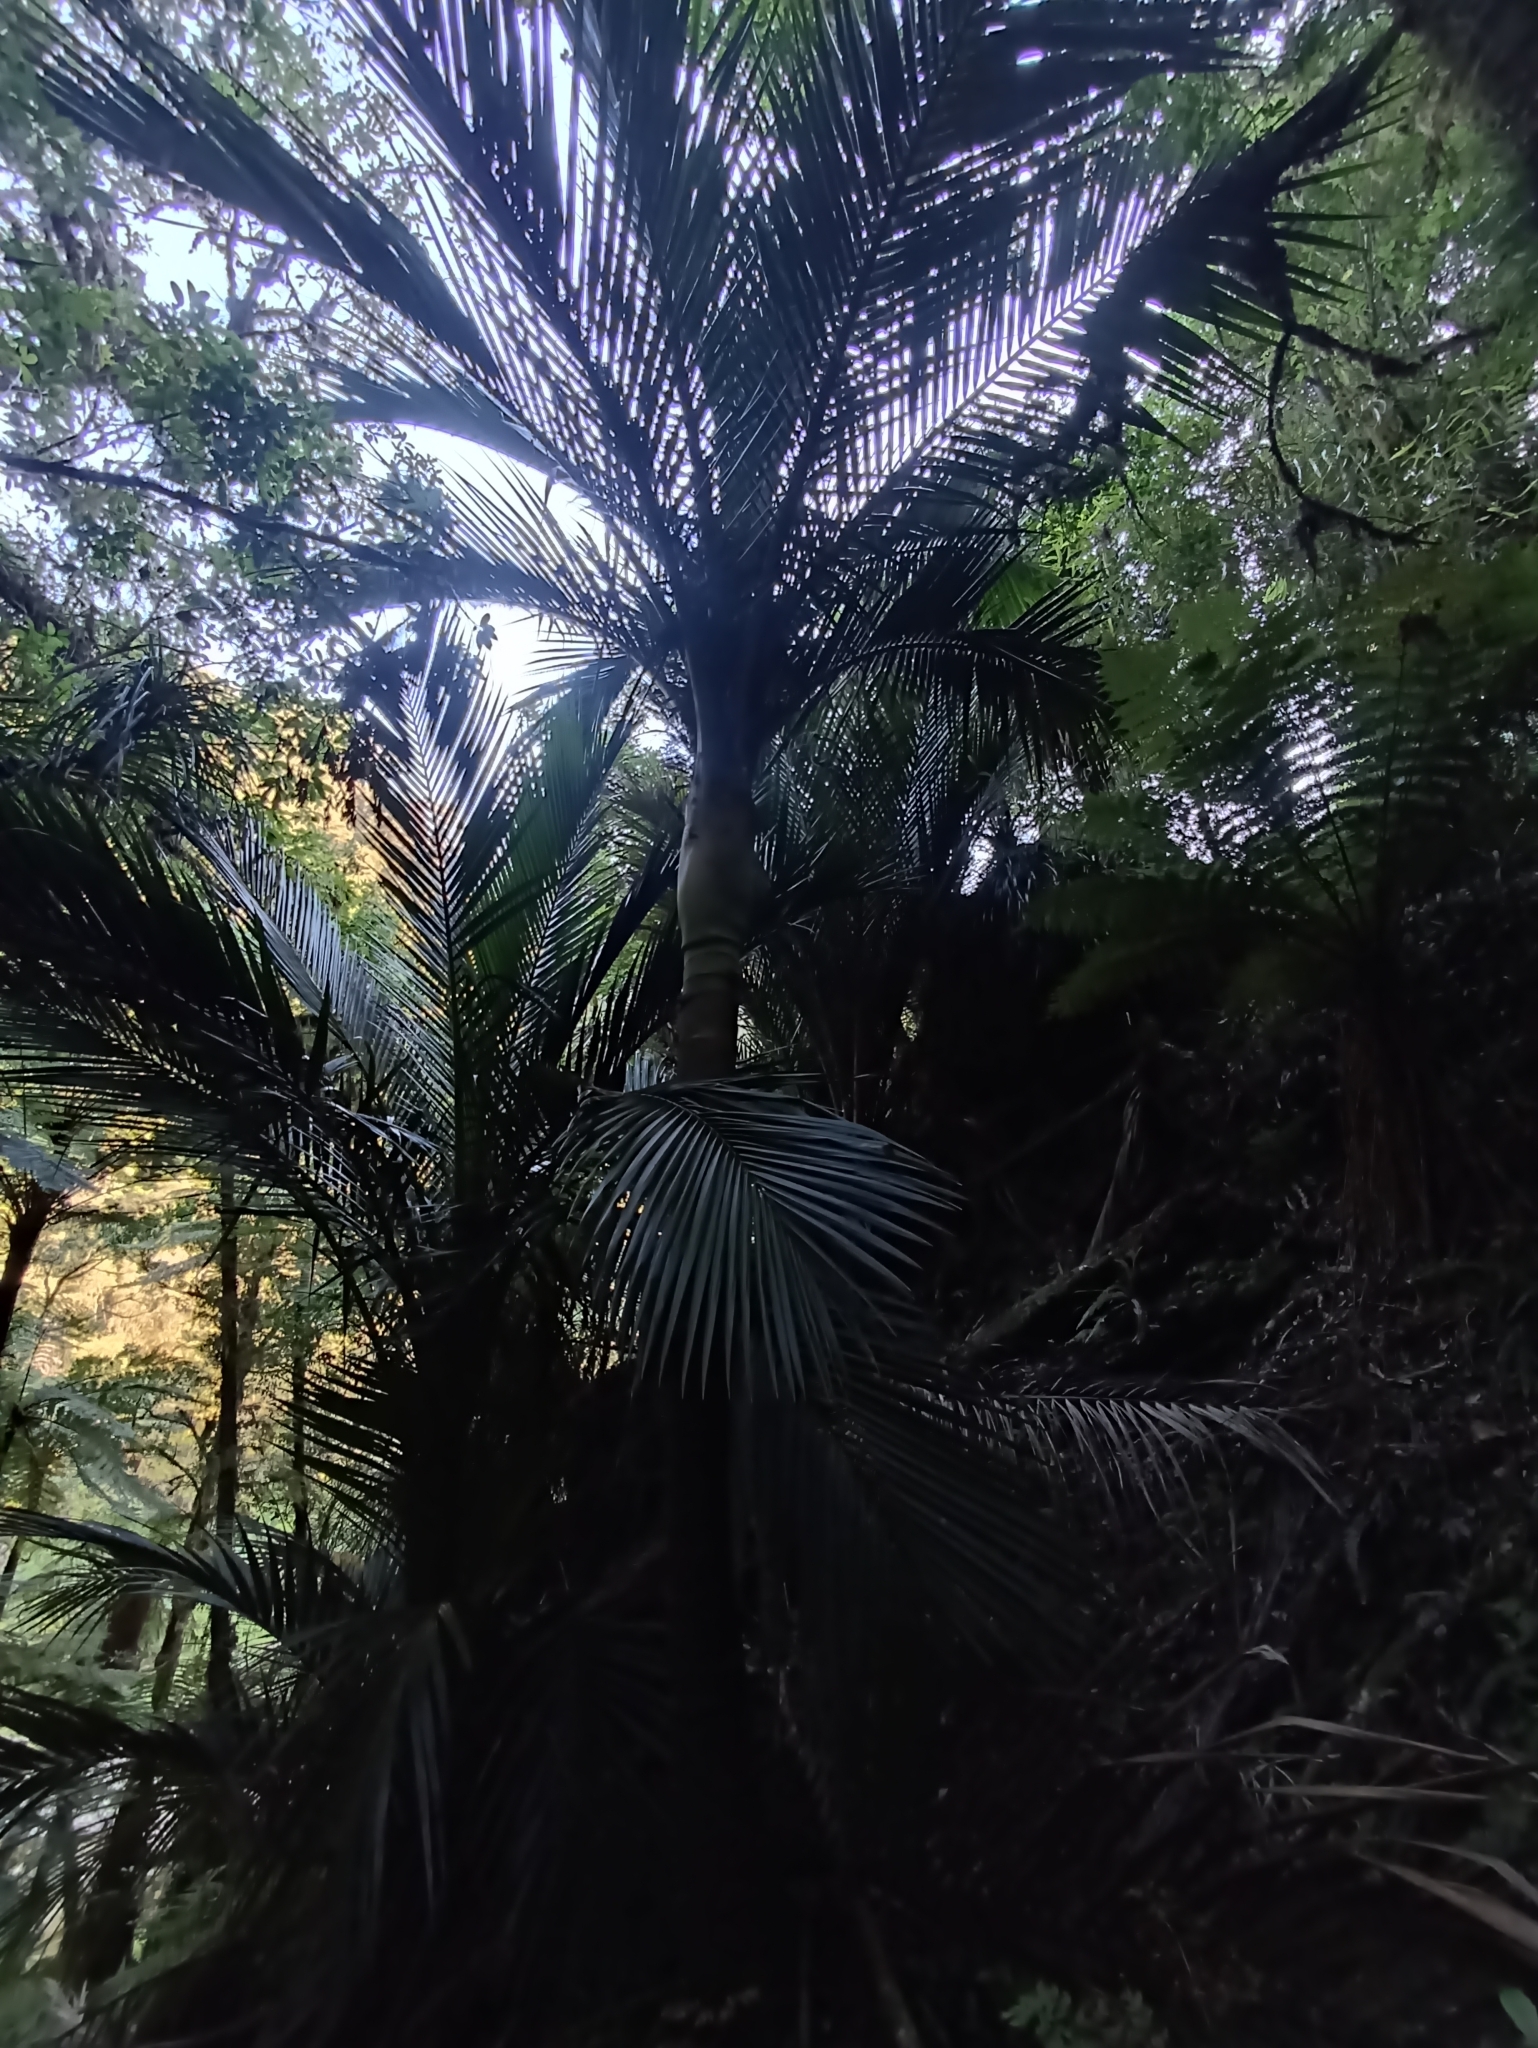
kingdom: Plantae
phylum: Tracheophyta
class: Liliopsida
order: Arecales
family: Arecaceae
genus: Rhopalostylis
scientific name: Rhopalostylis sapida
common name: Feather-duster palm
